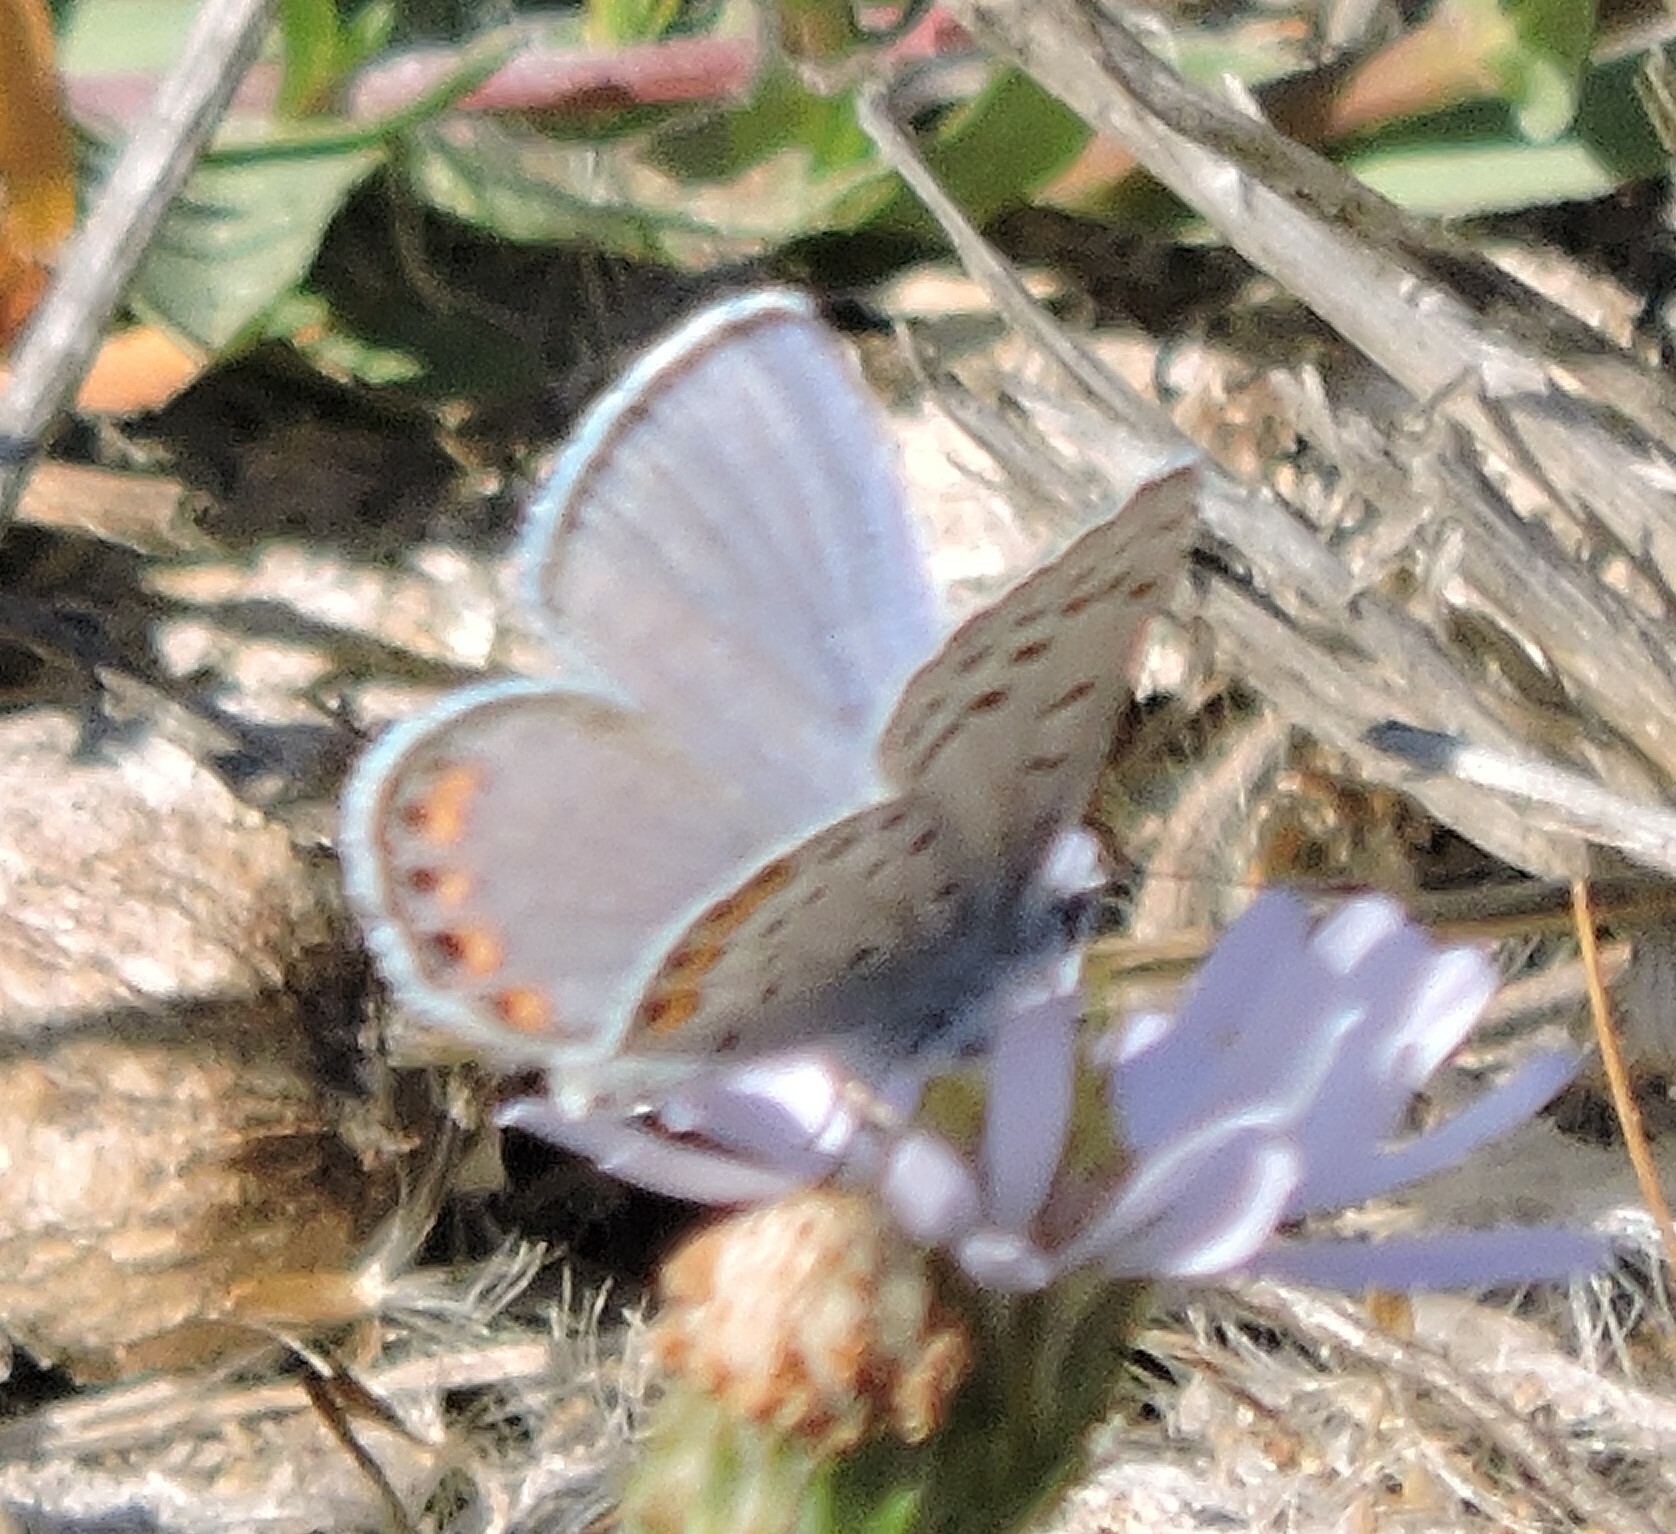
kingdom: Animalia
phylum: Arthropoda
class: Insecta
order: Lepidoptera
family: Lycaenidae
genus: Icaricia
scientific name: Icaricia acmon
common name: Acmon blue
